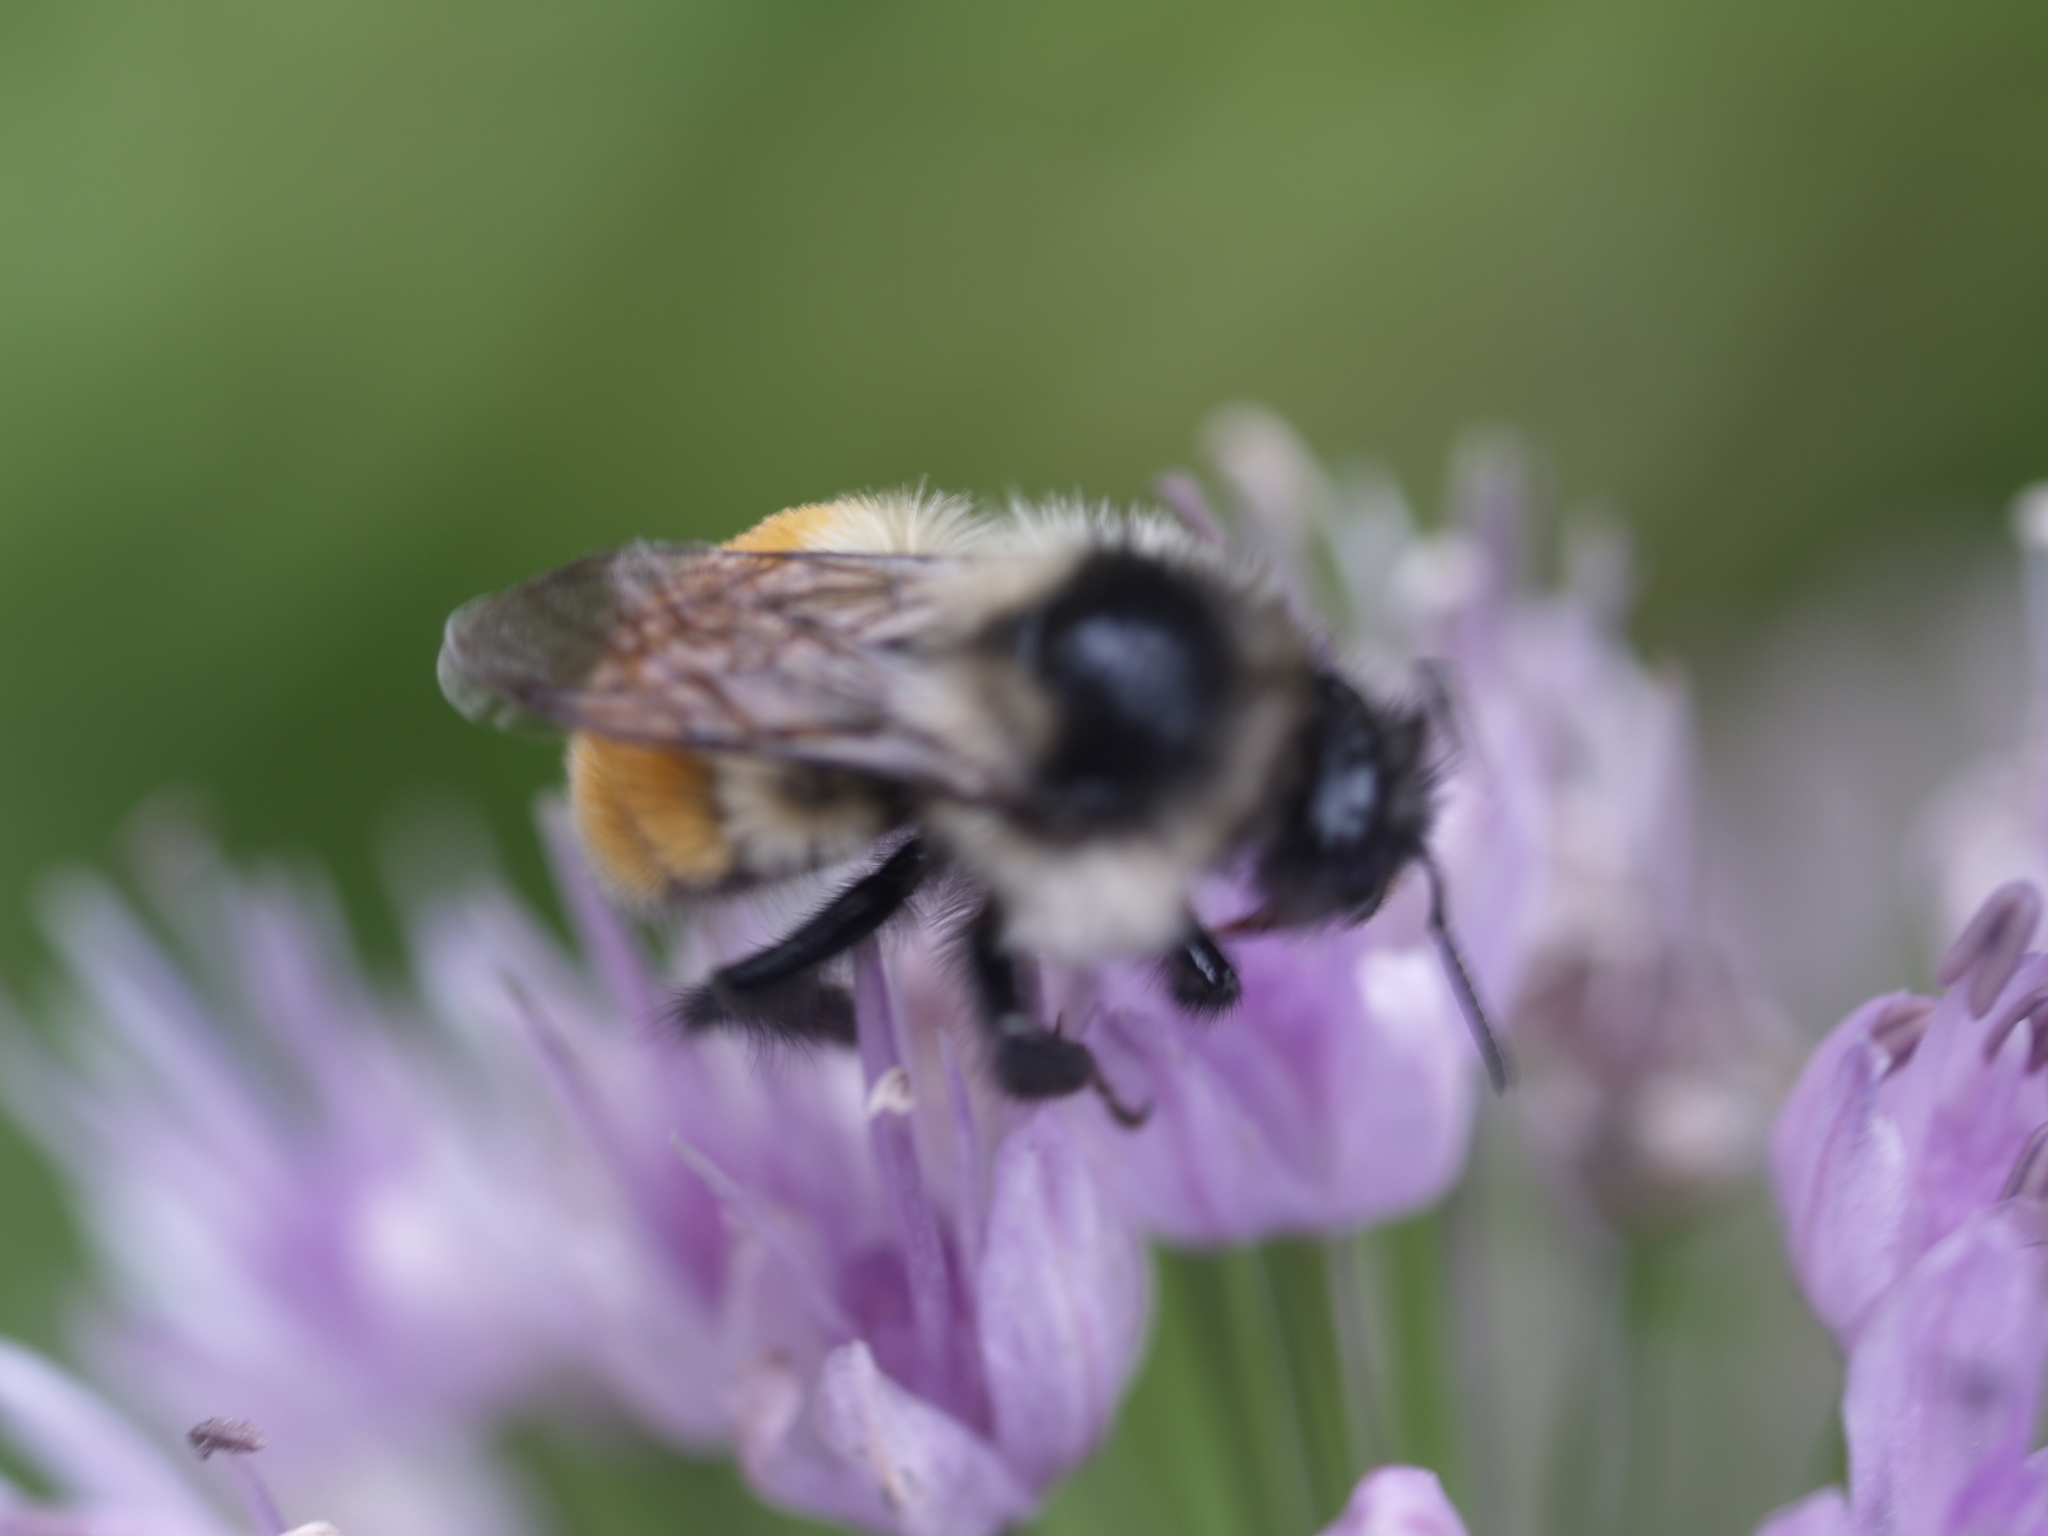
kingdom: Animalia
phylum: Arthropoda
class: Insecta
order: Hymenoptera
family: Apidae
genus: Bombus
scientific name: Bombus ternarius
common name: Tri-colored bumble bee
